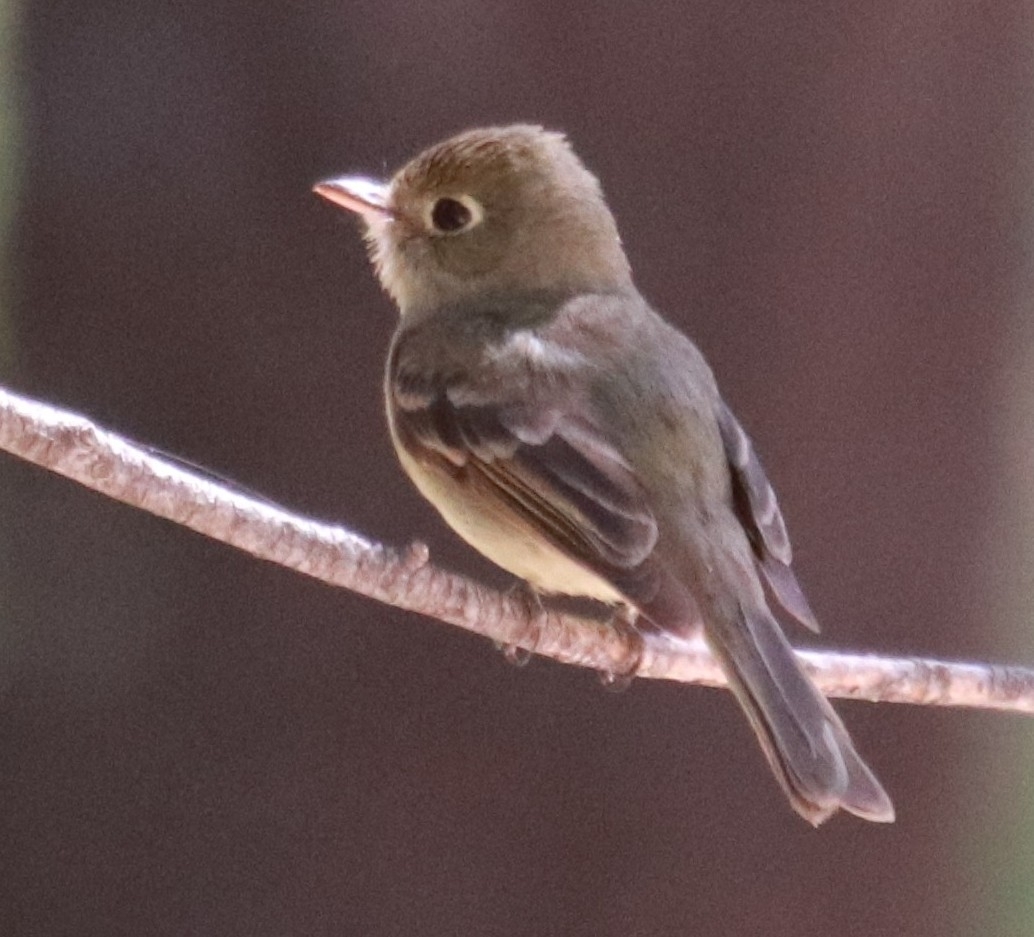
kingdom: Animalia
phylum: Chordata
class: Aves
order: Passeriformes
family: Tyrannidae
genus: Empidonax
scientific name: Empidonax difficilis
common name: Pacific-slope flycatcher
